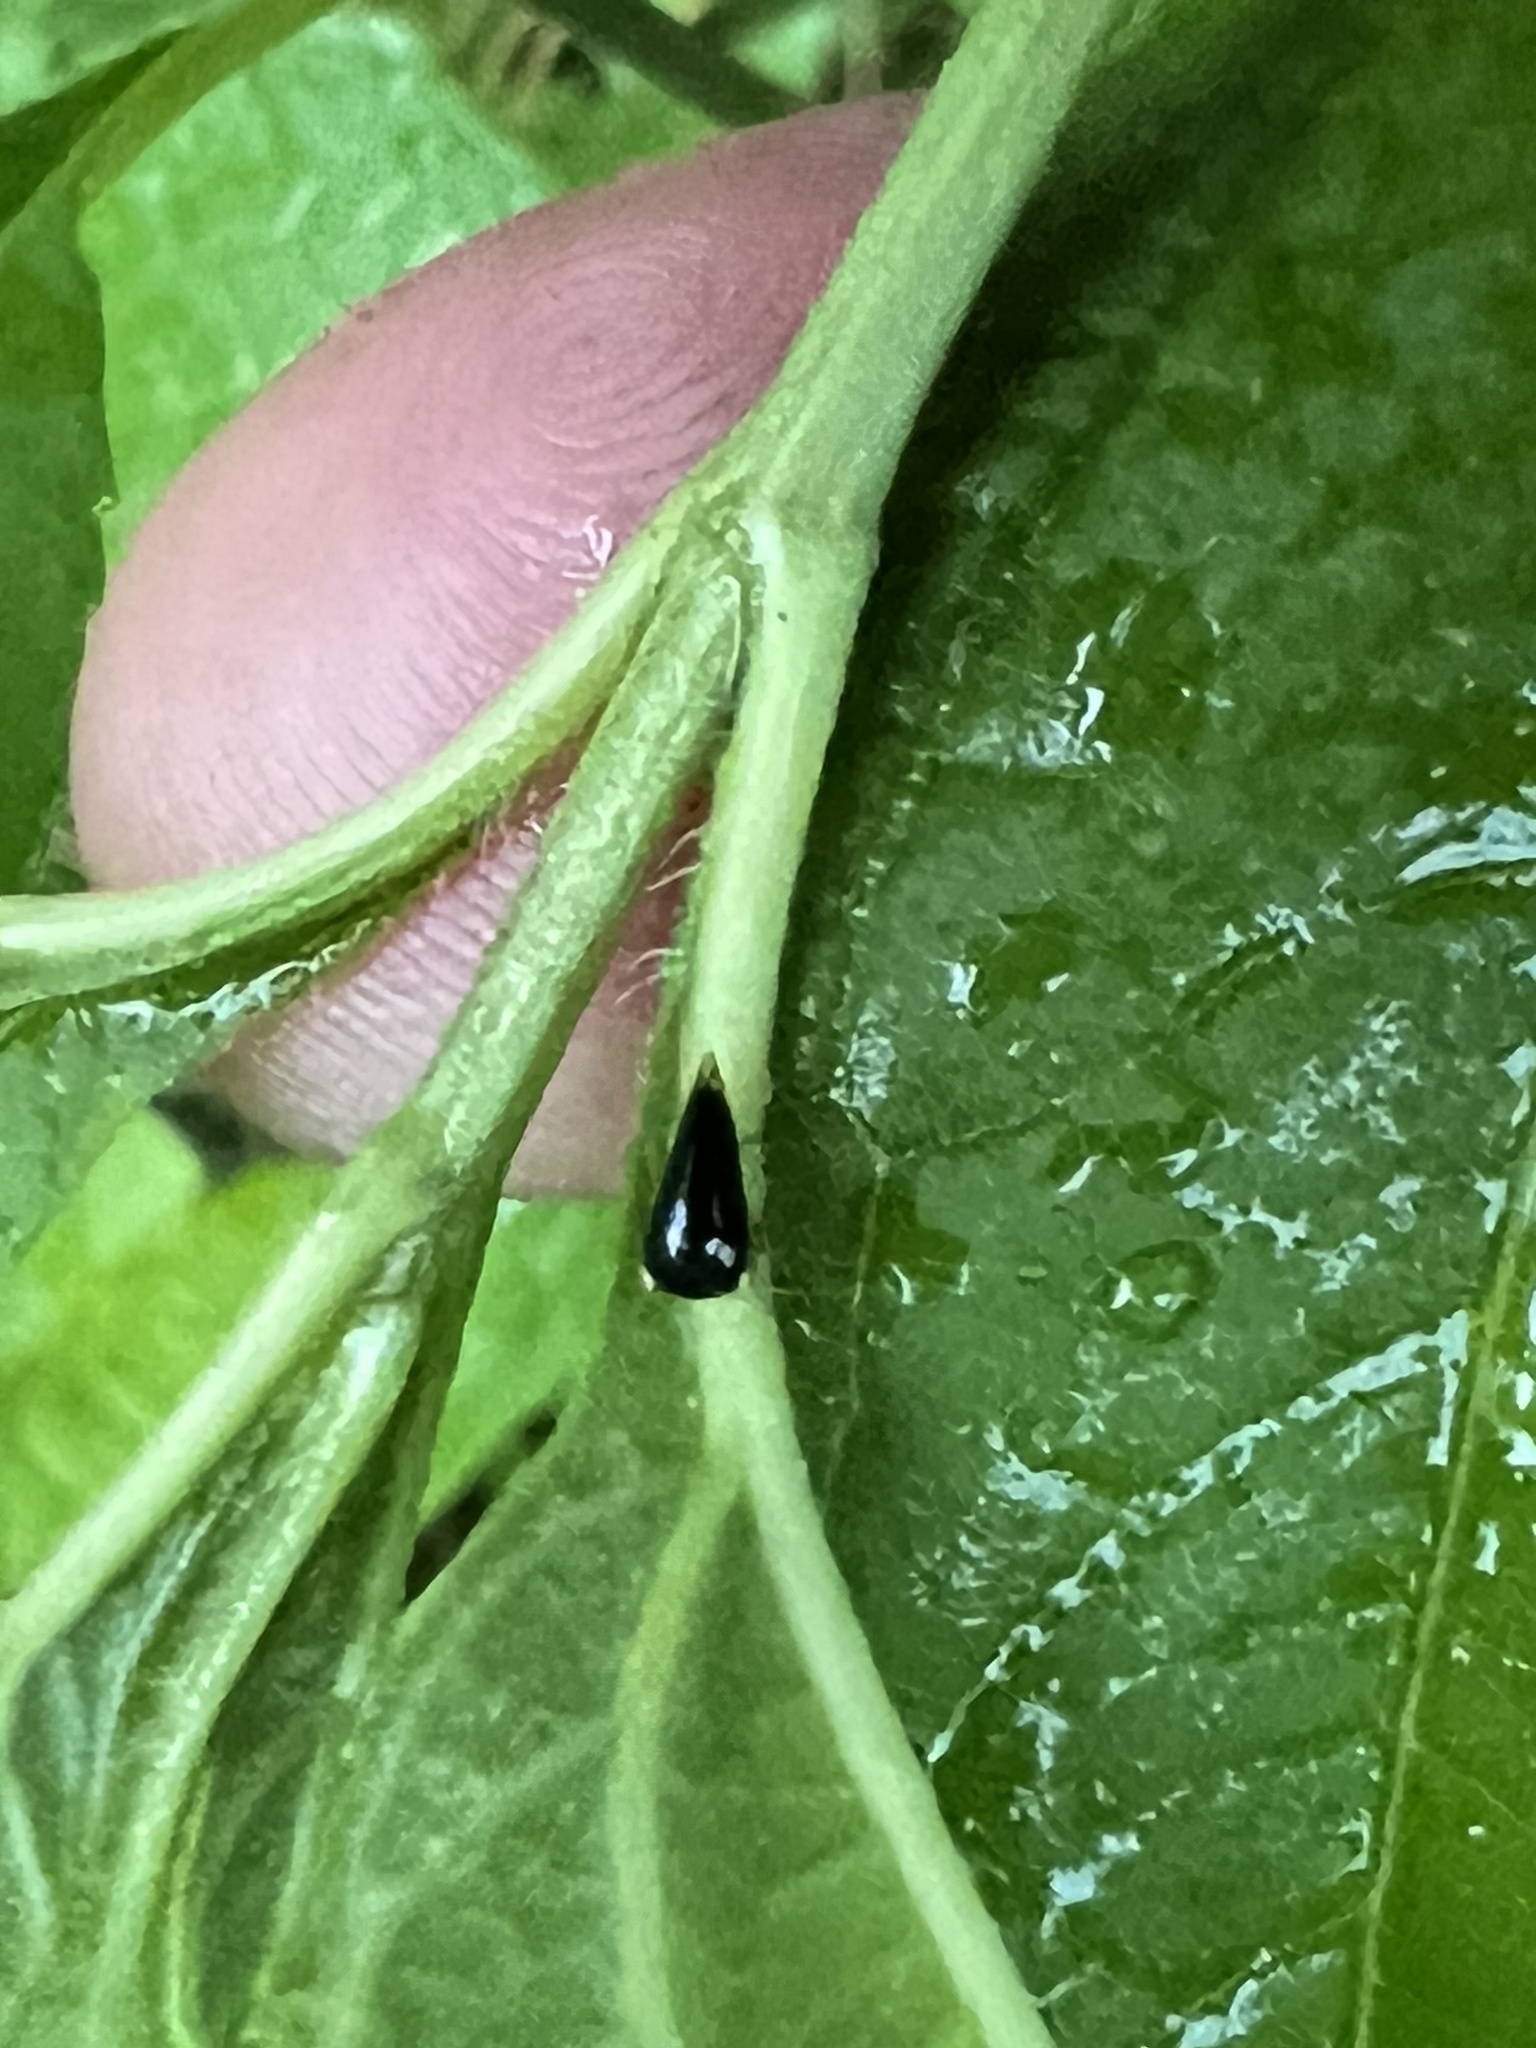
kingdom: Animalia
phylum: Arthropoda
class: Insecta
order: Hemiptera
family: Membracidae
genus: Acutalis
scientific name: Acutalis tartarea
